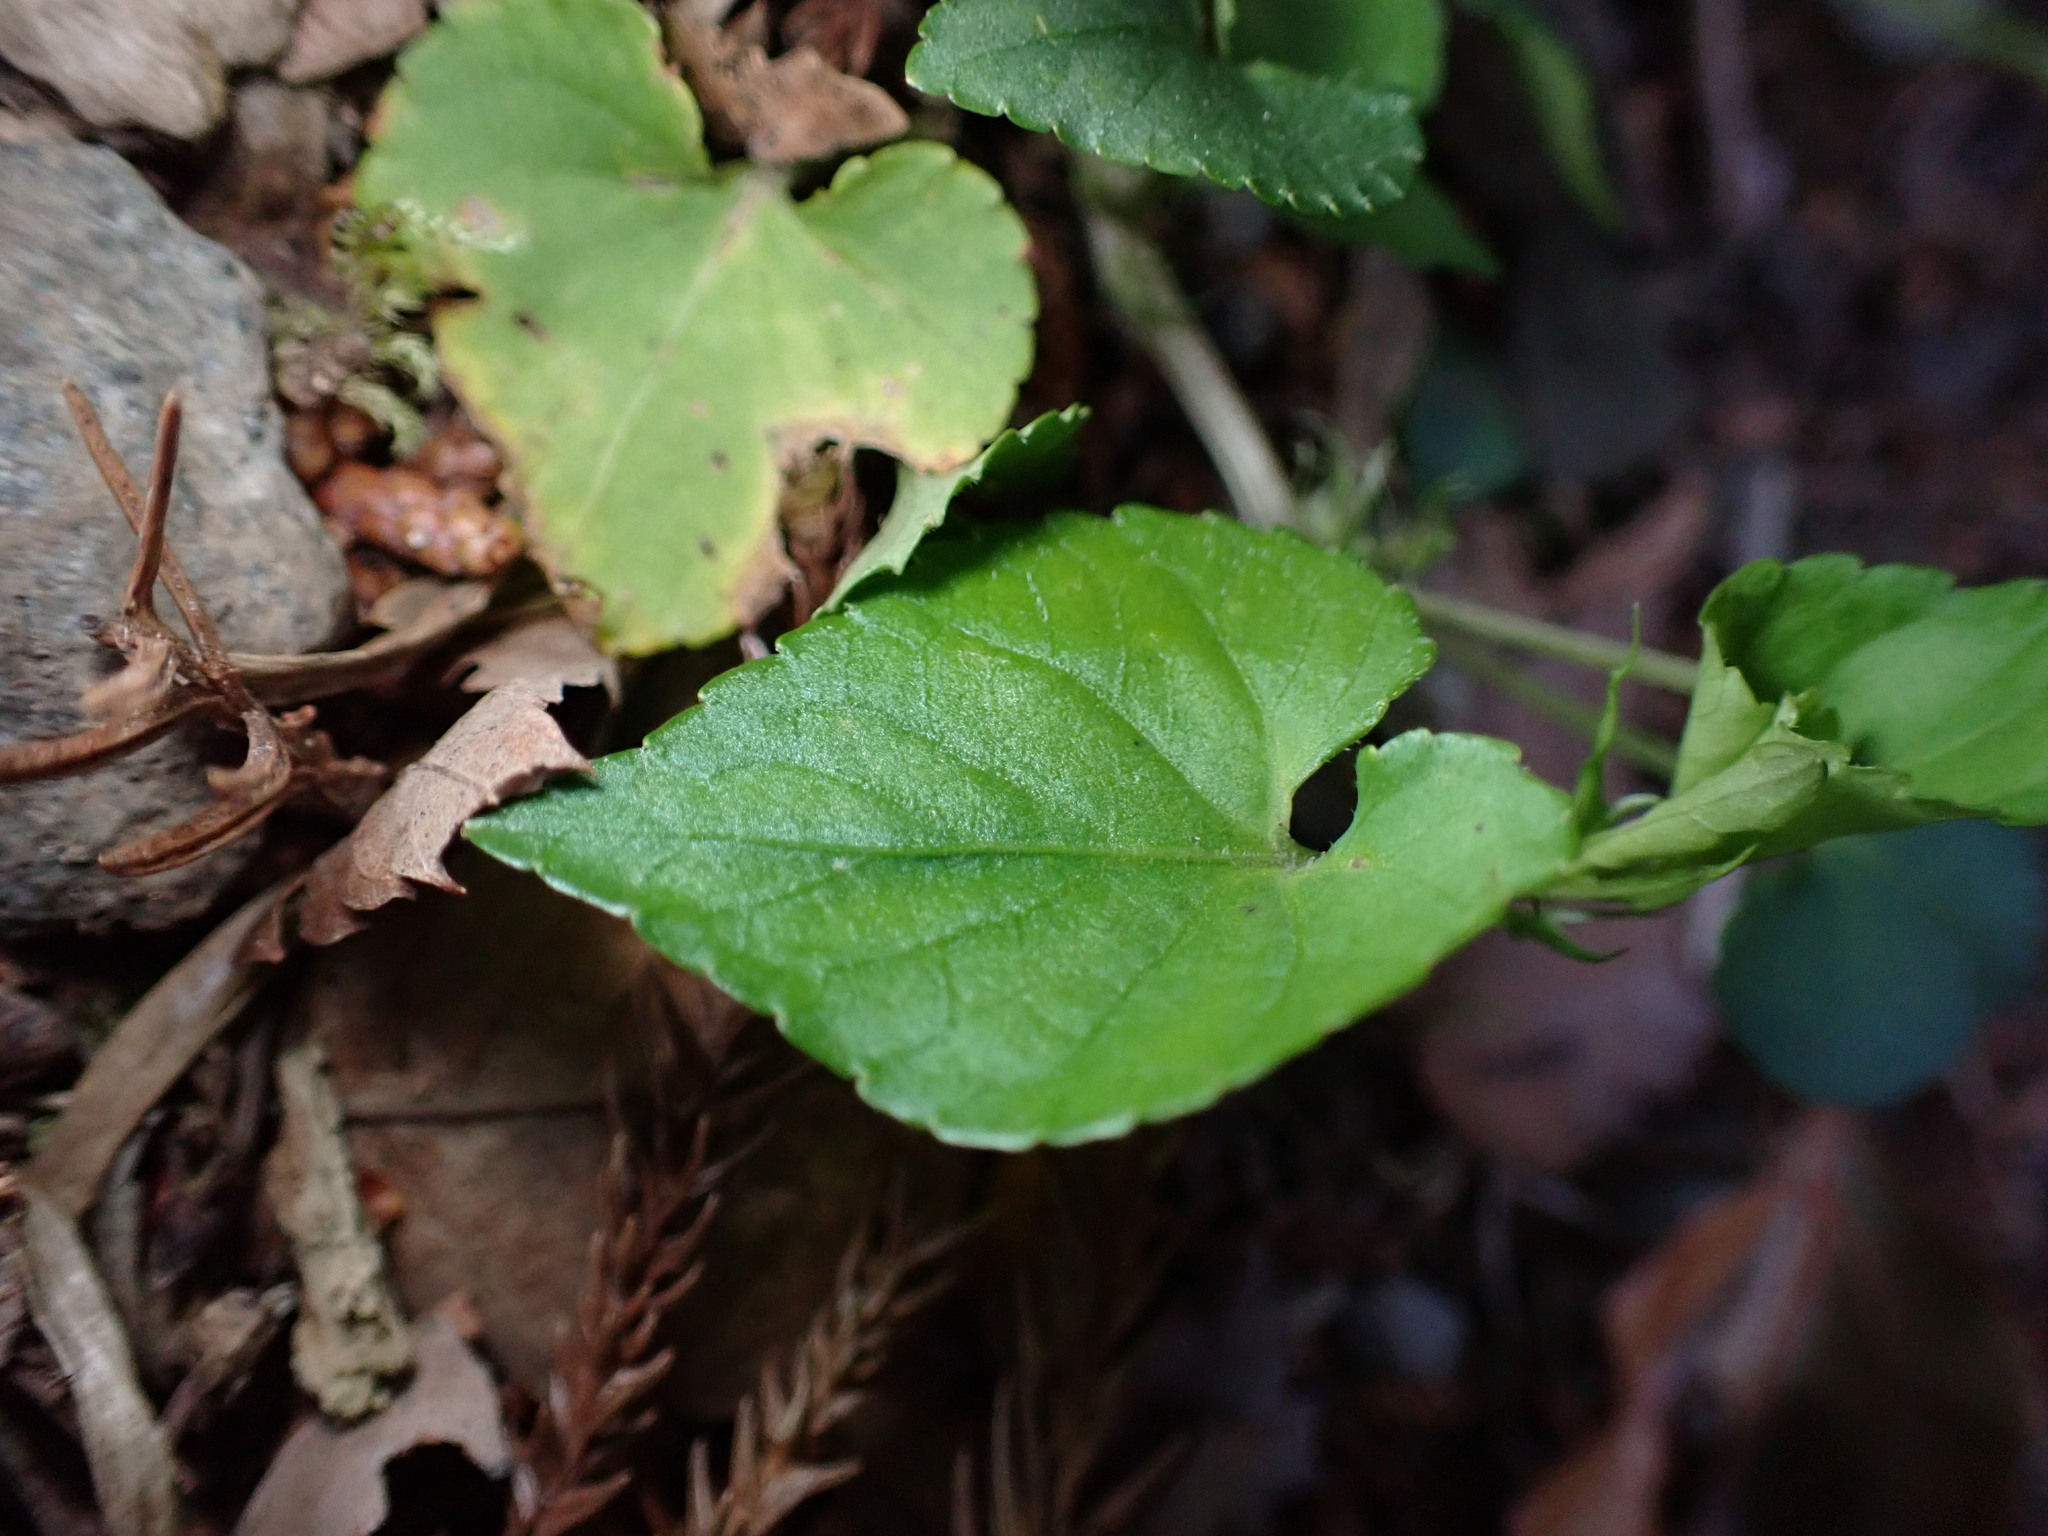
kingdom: Plantae
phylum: Tracheophyta
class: Magnoliopsida
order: Malpighiales
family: Violaceae
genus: Viola
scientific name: Viola grypoceras
